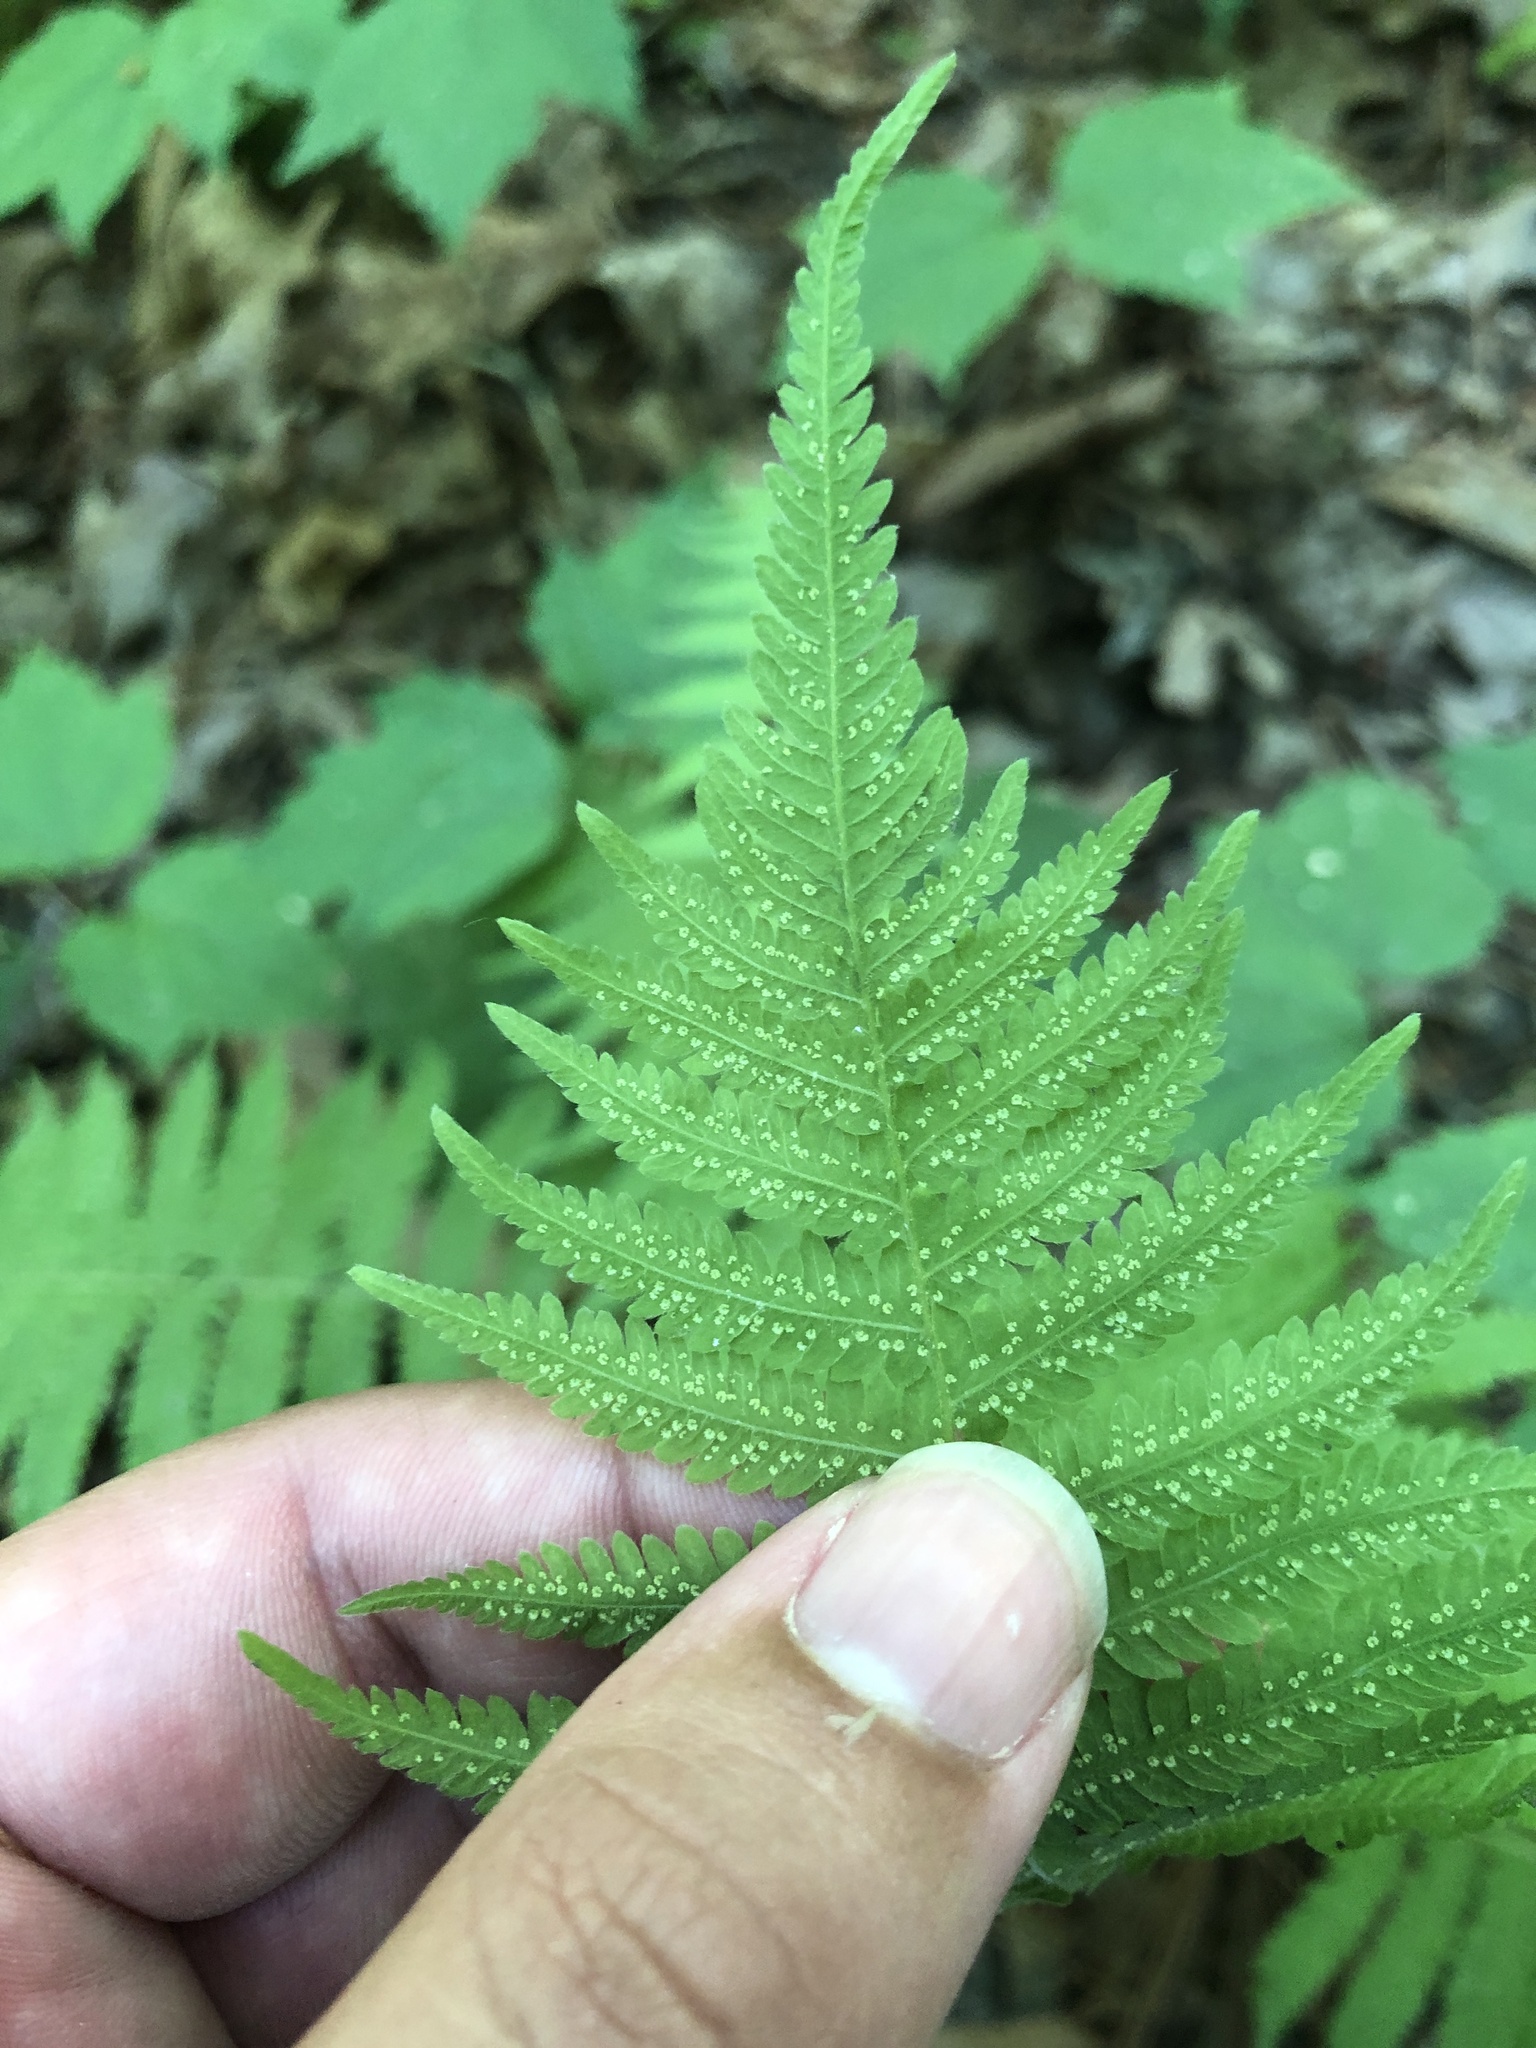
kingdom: Plantae
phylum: Tracheophyta
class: Polypodiopsida
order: Polypodiales
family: Thelypteridaceae
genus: Amauropelta
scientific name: Amauropelta noveboracensis
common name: New york fern
